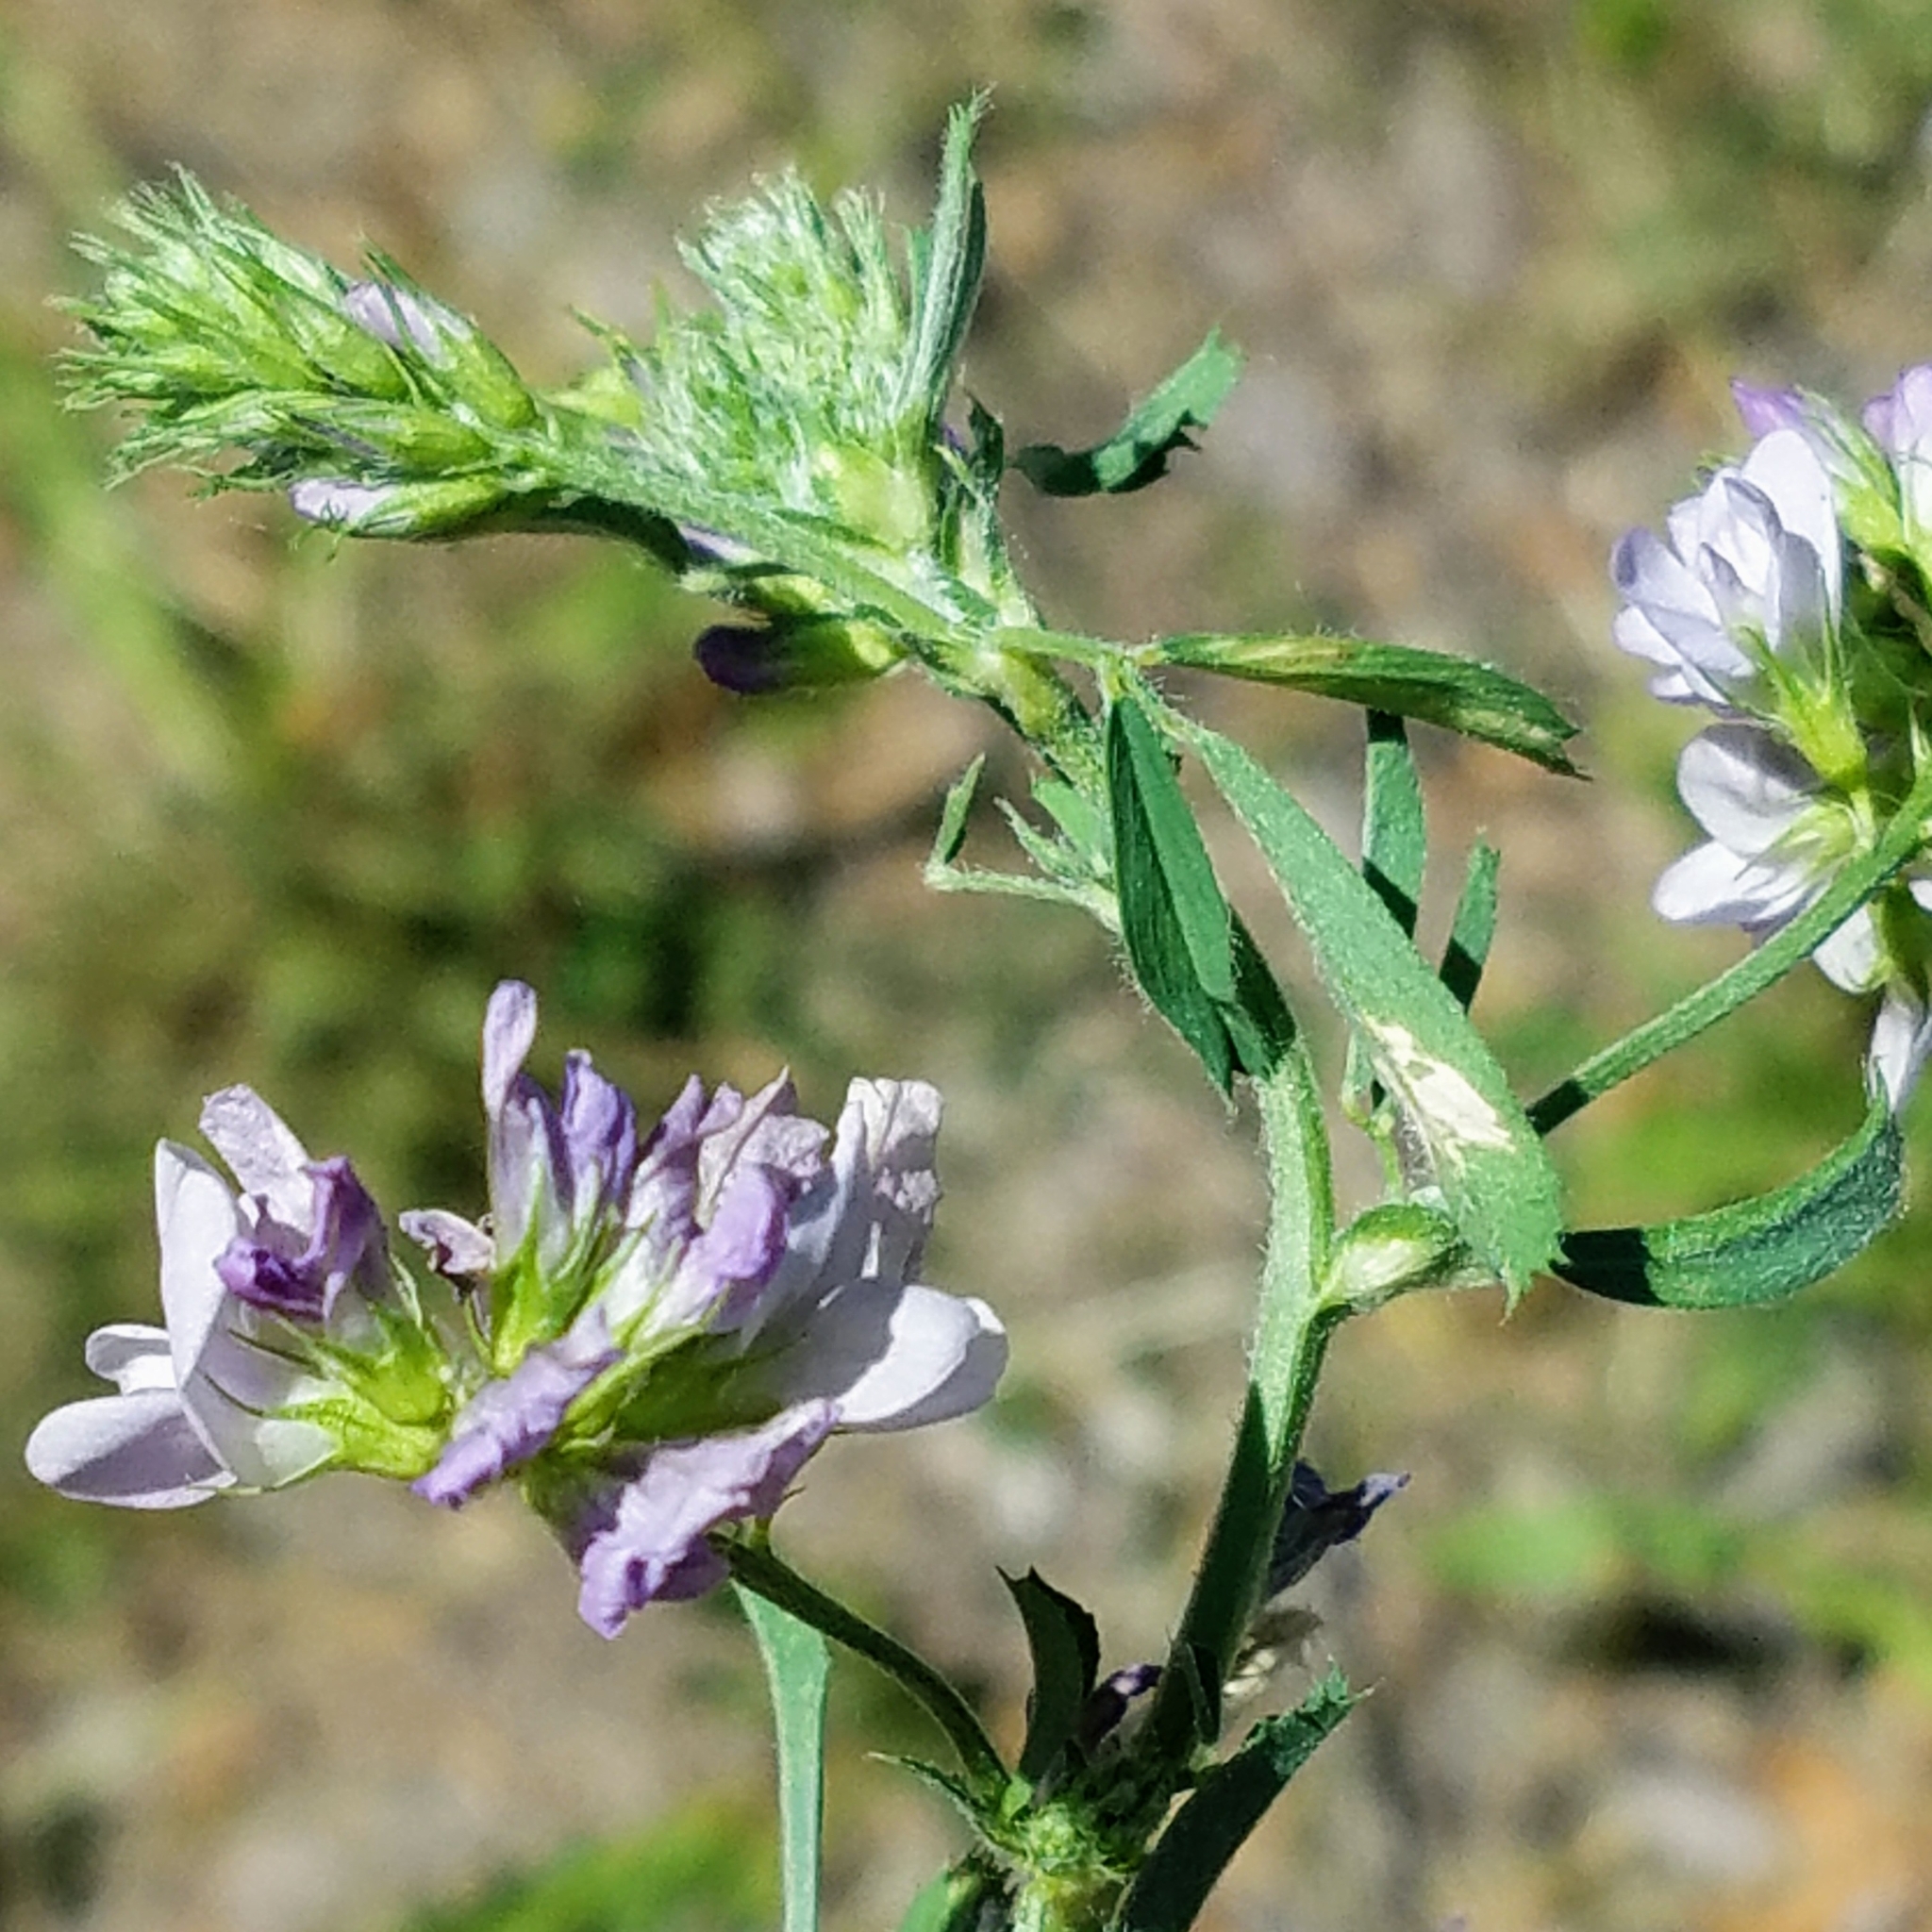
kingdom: Plantae
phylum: Tracheophyta
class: Magnoliopsida
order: Fabales
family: Fabaceae
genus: Medicago
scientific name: Medicago sativa
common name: Alfalfa
